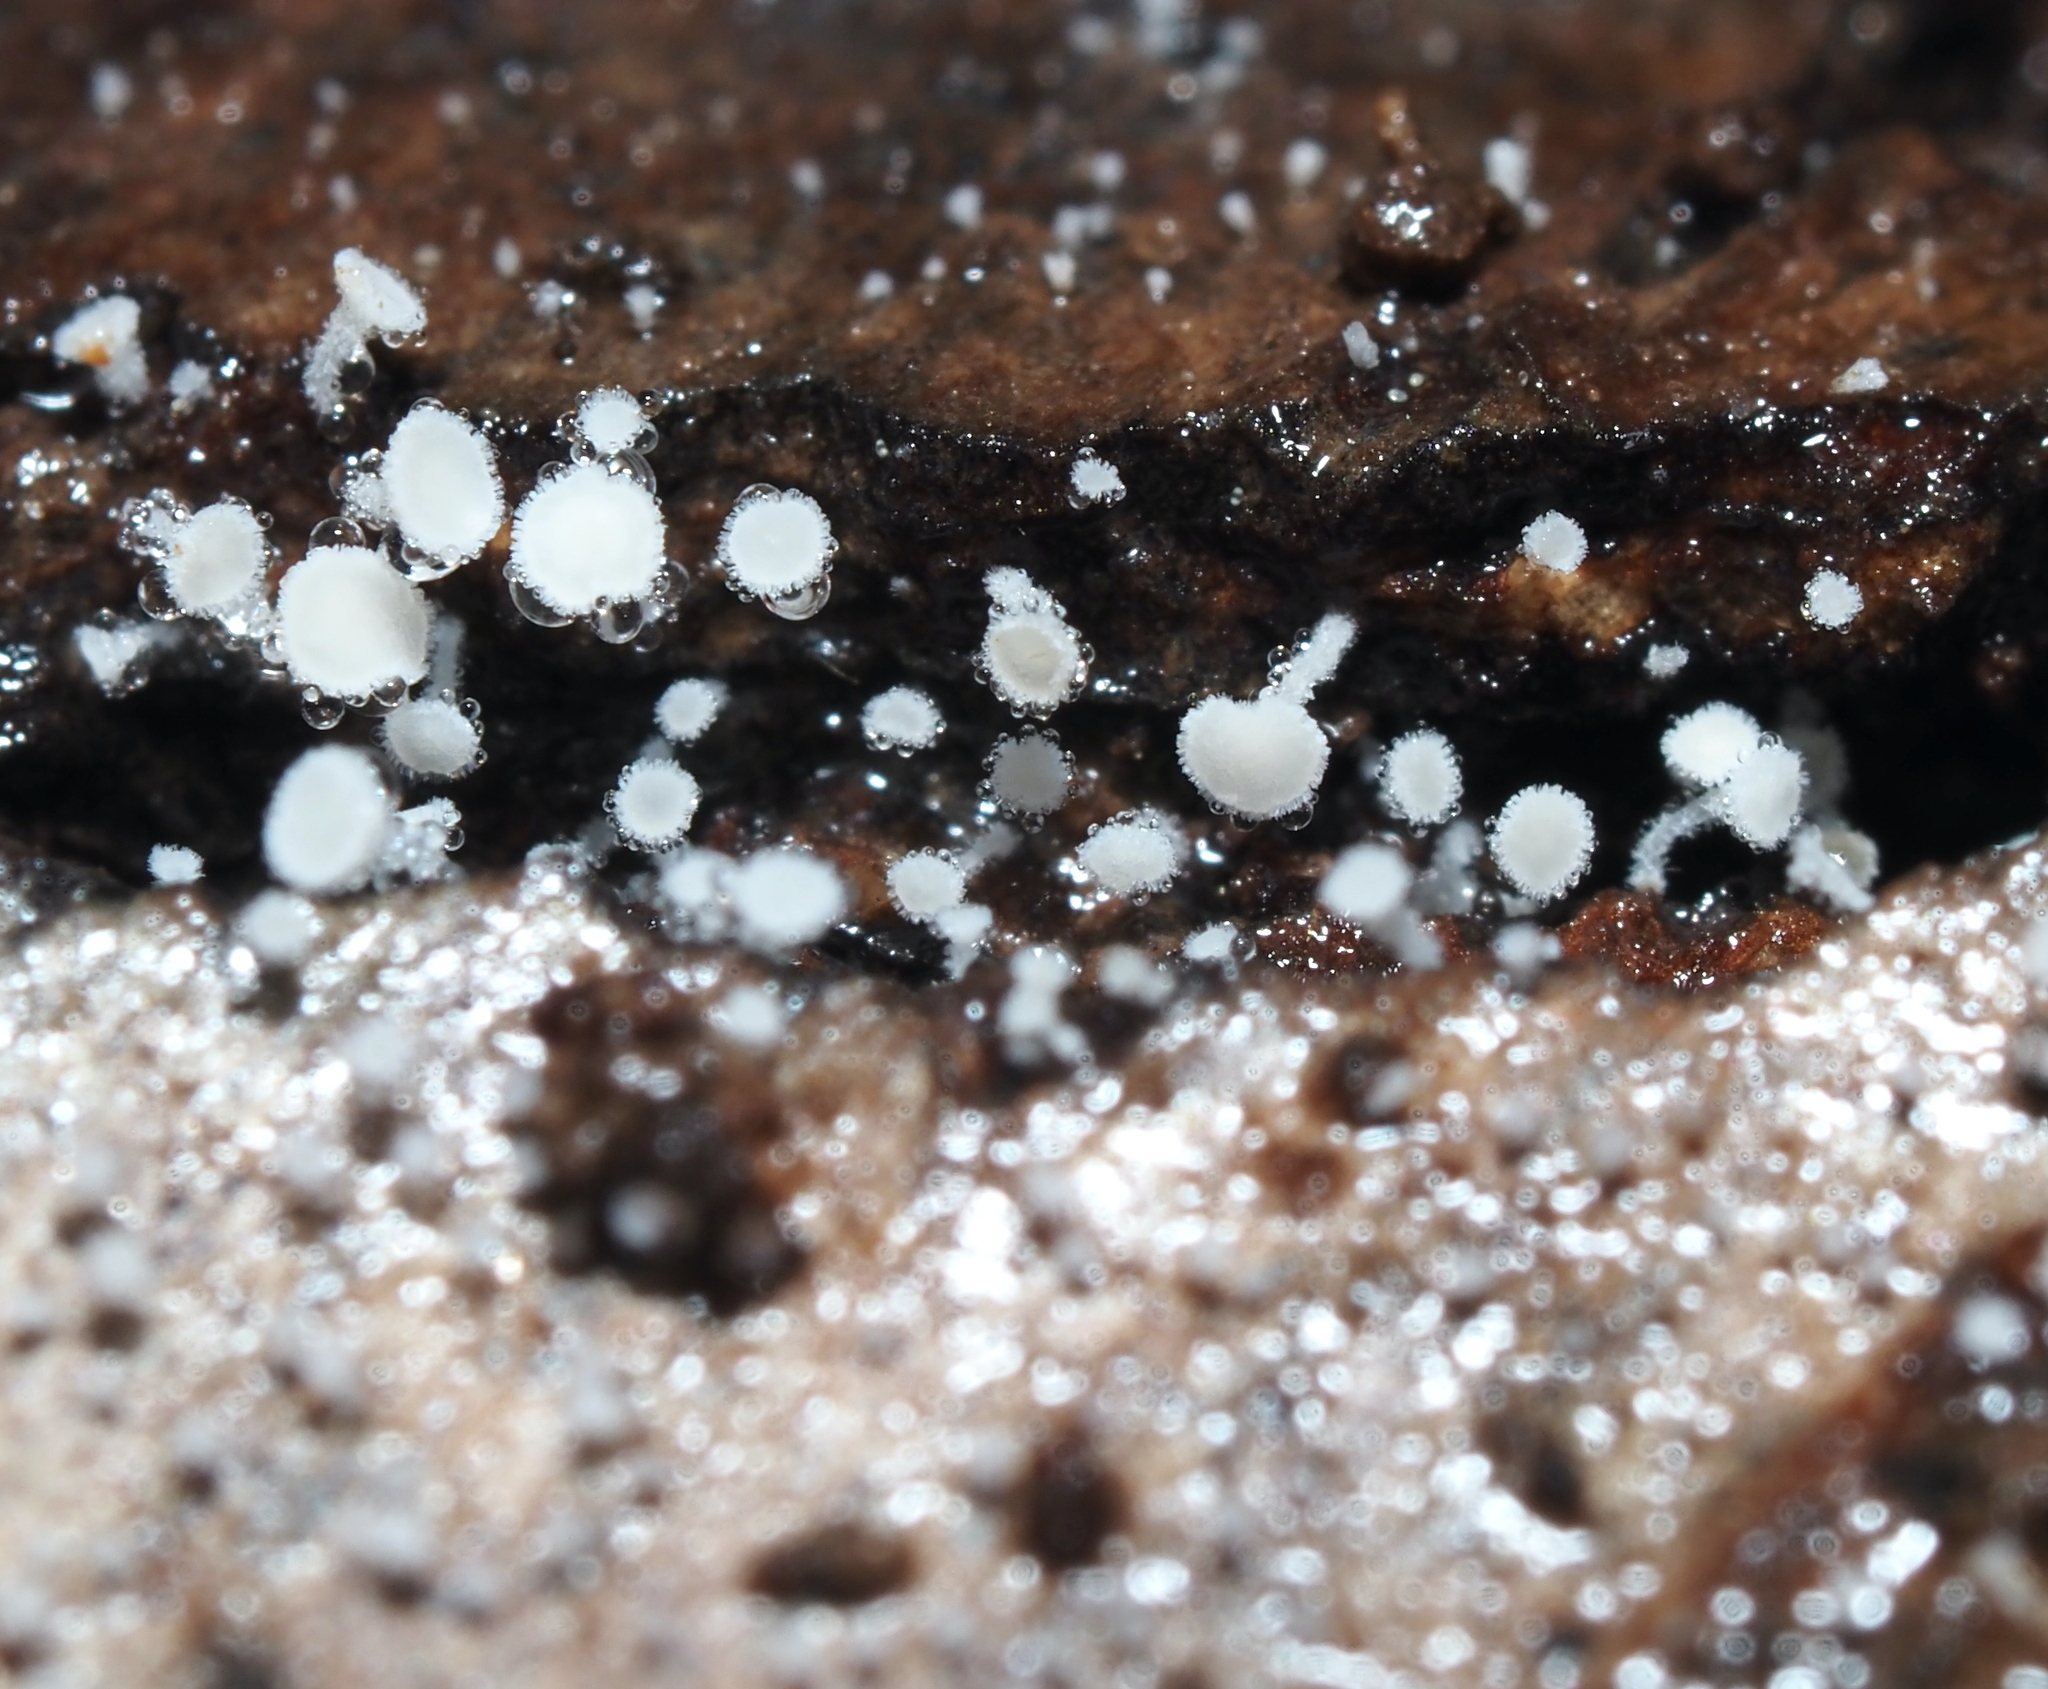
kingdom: Fungi
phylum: Ascomycota
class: Leotiomycetes
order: Helotiales
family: Lachnaceae
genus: Lachnum
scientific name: Lachnum virgineum
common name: Snowy disco
